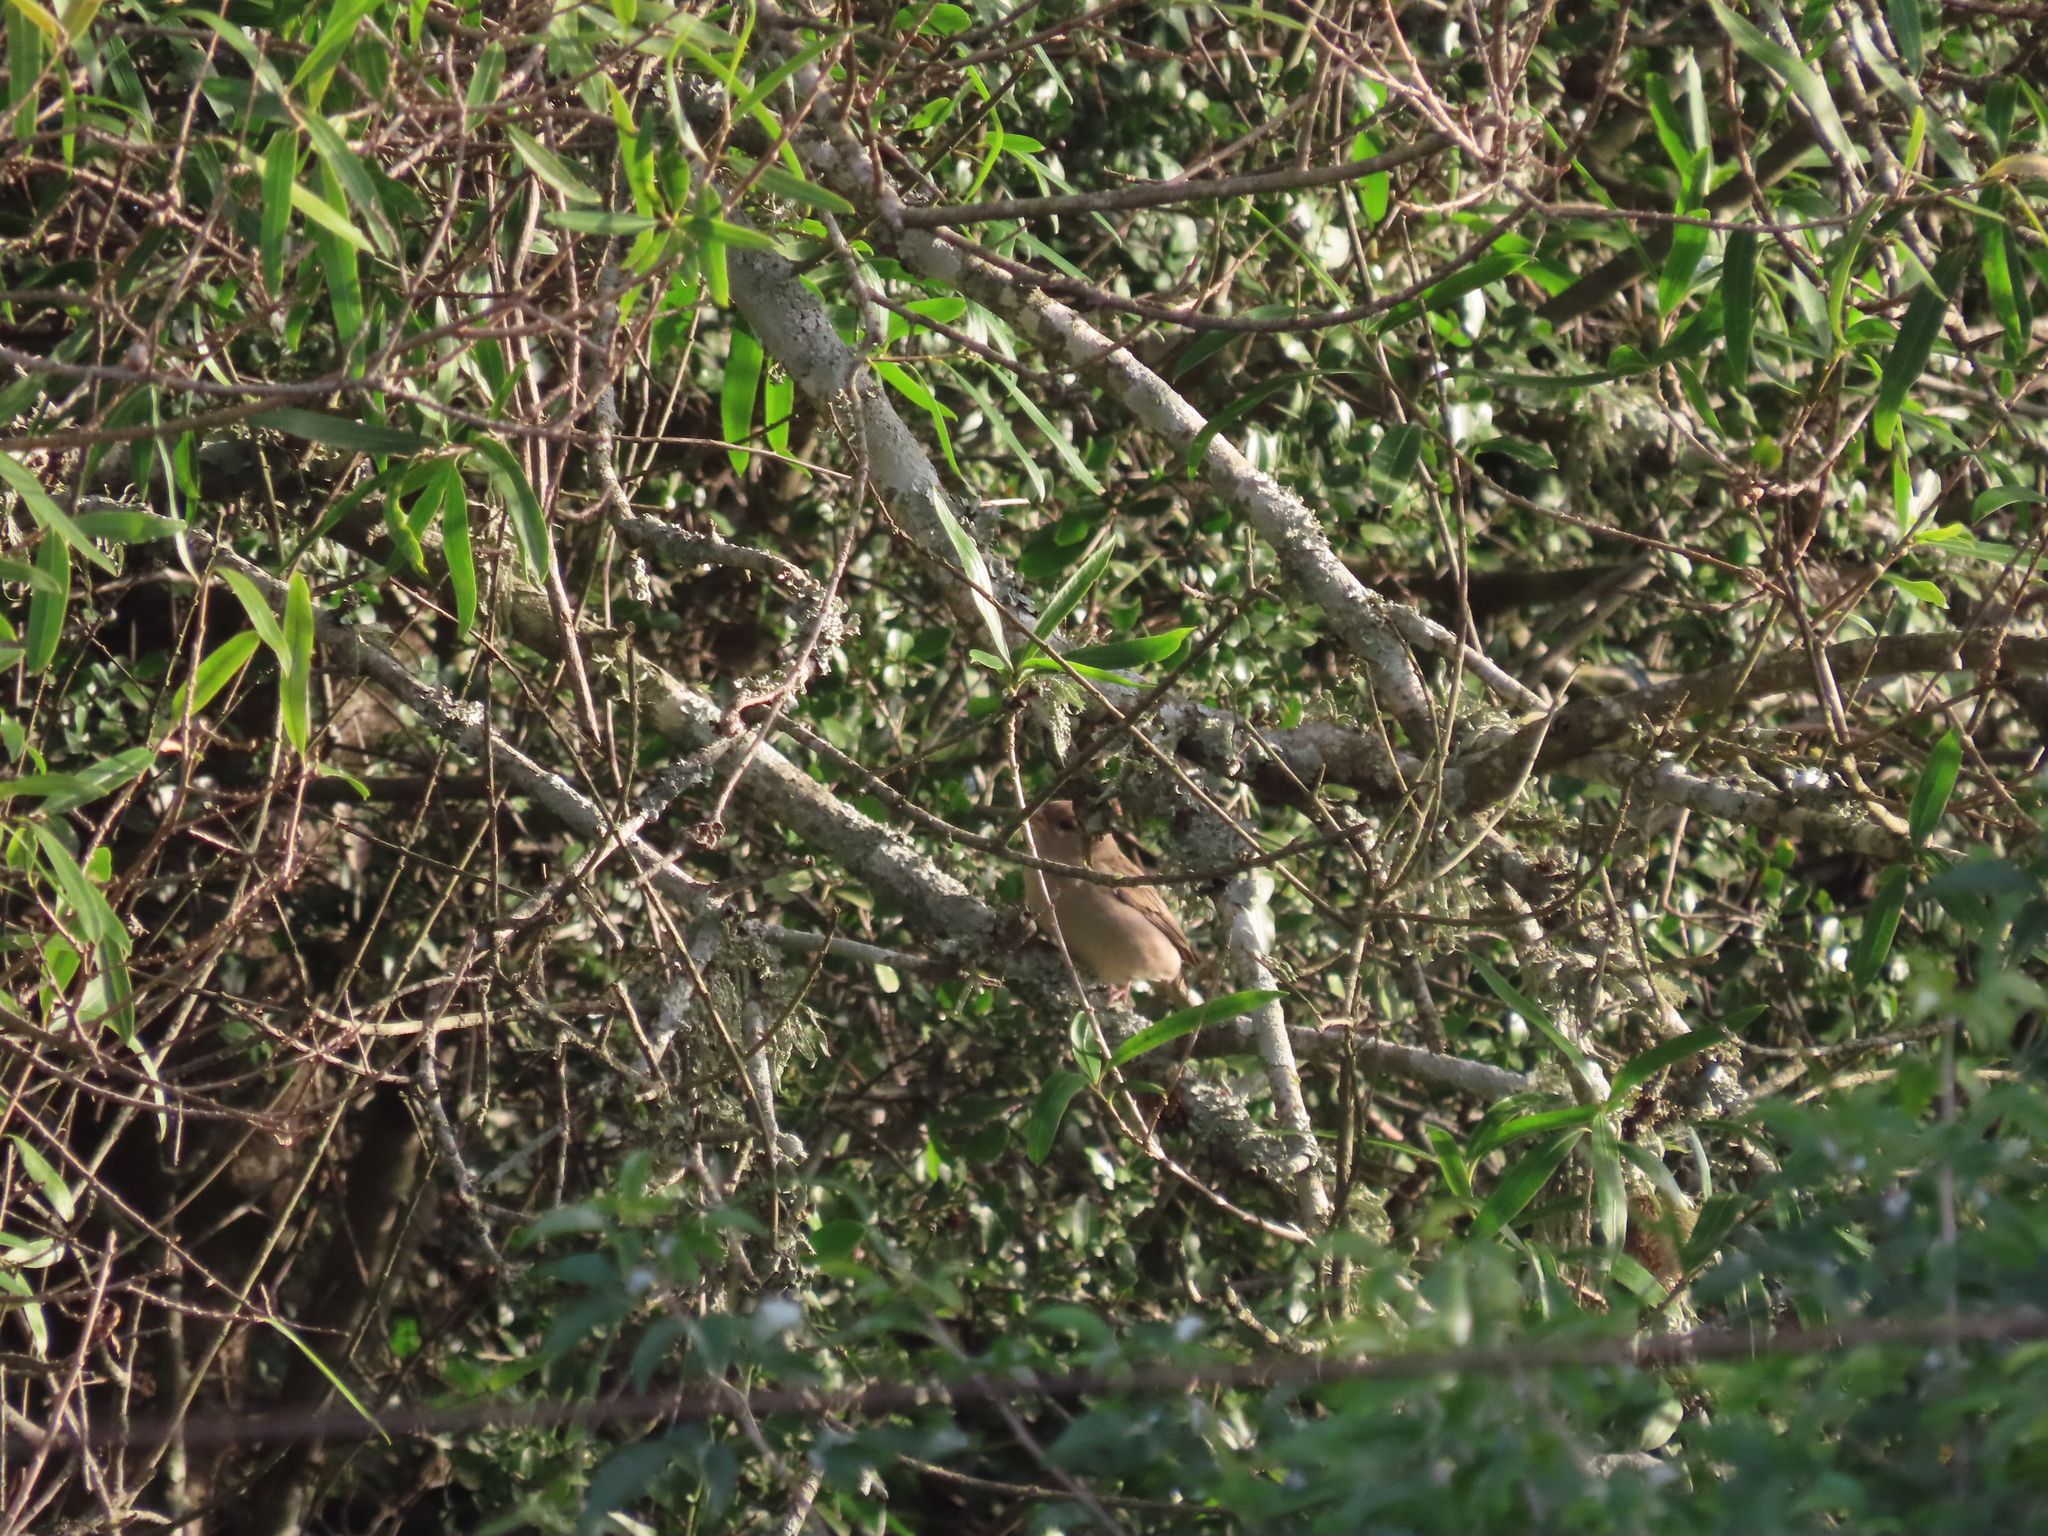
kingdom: Animalia
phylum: Chordata
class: Aves
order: Passeriformes
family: Passeridae
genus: Passer
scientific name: Passer domesticus
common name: House sparrow
